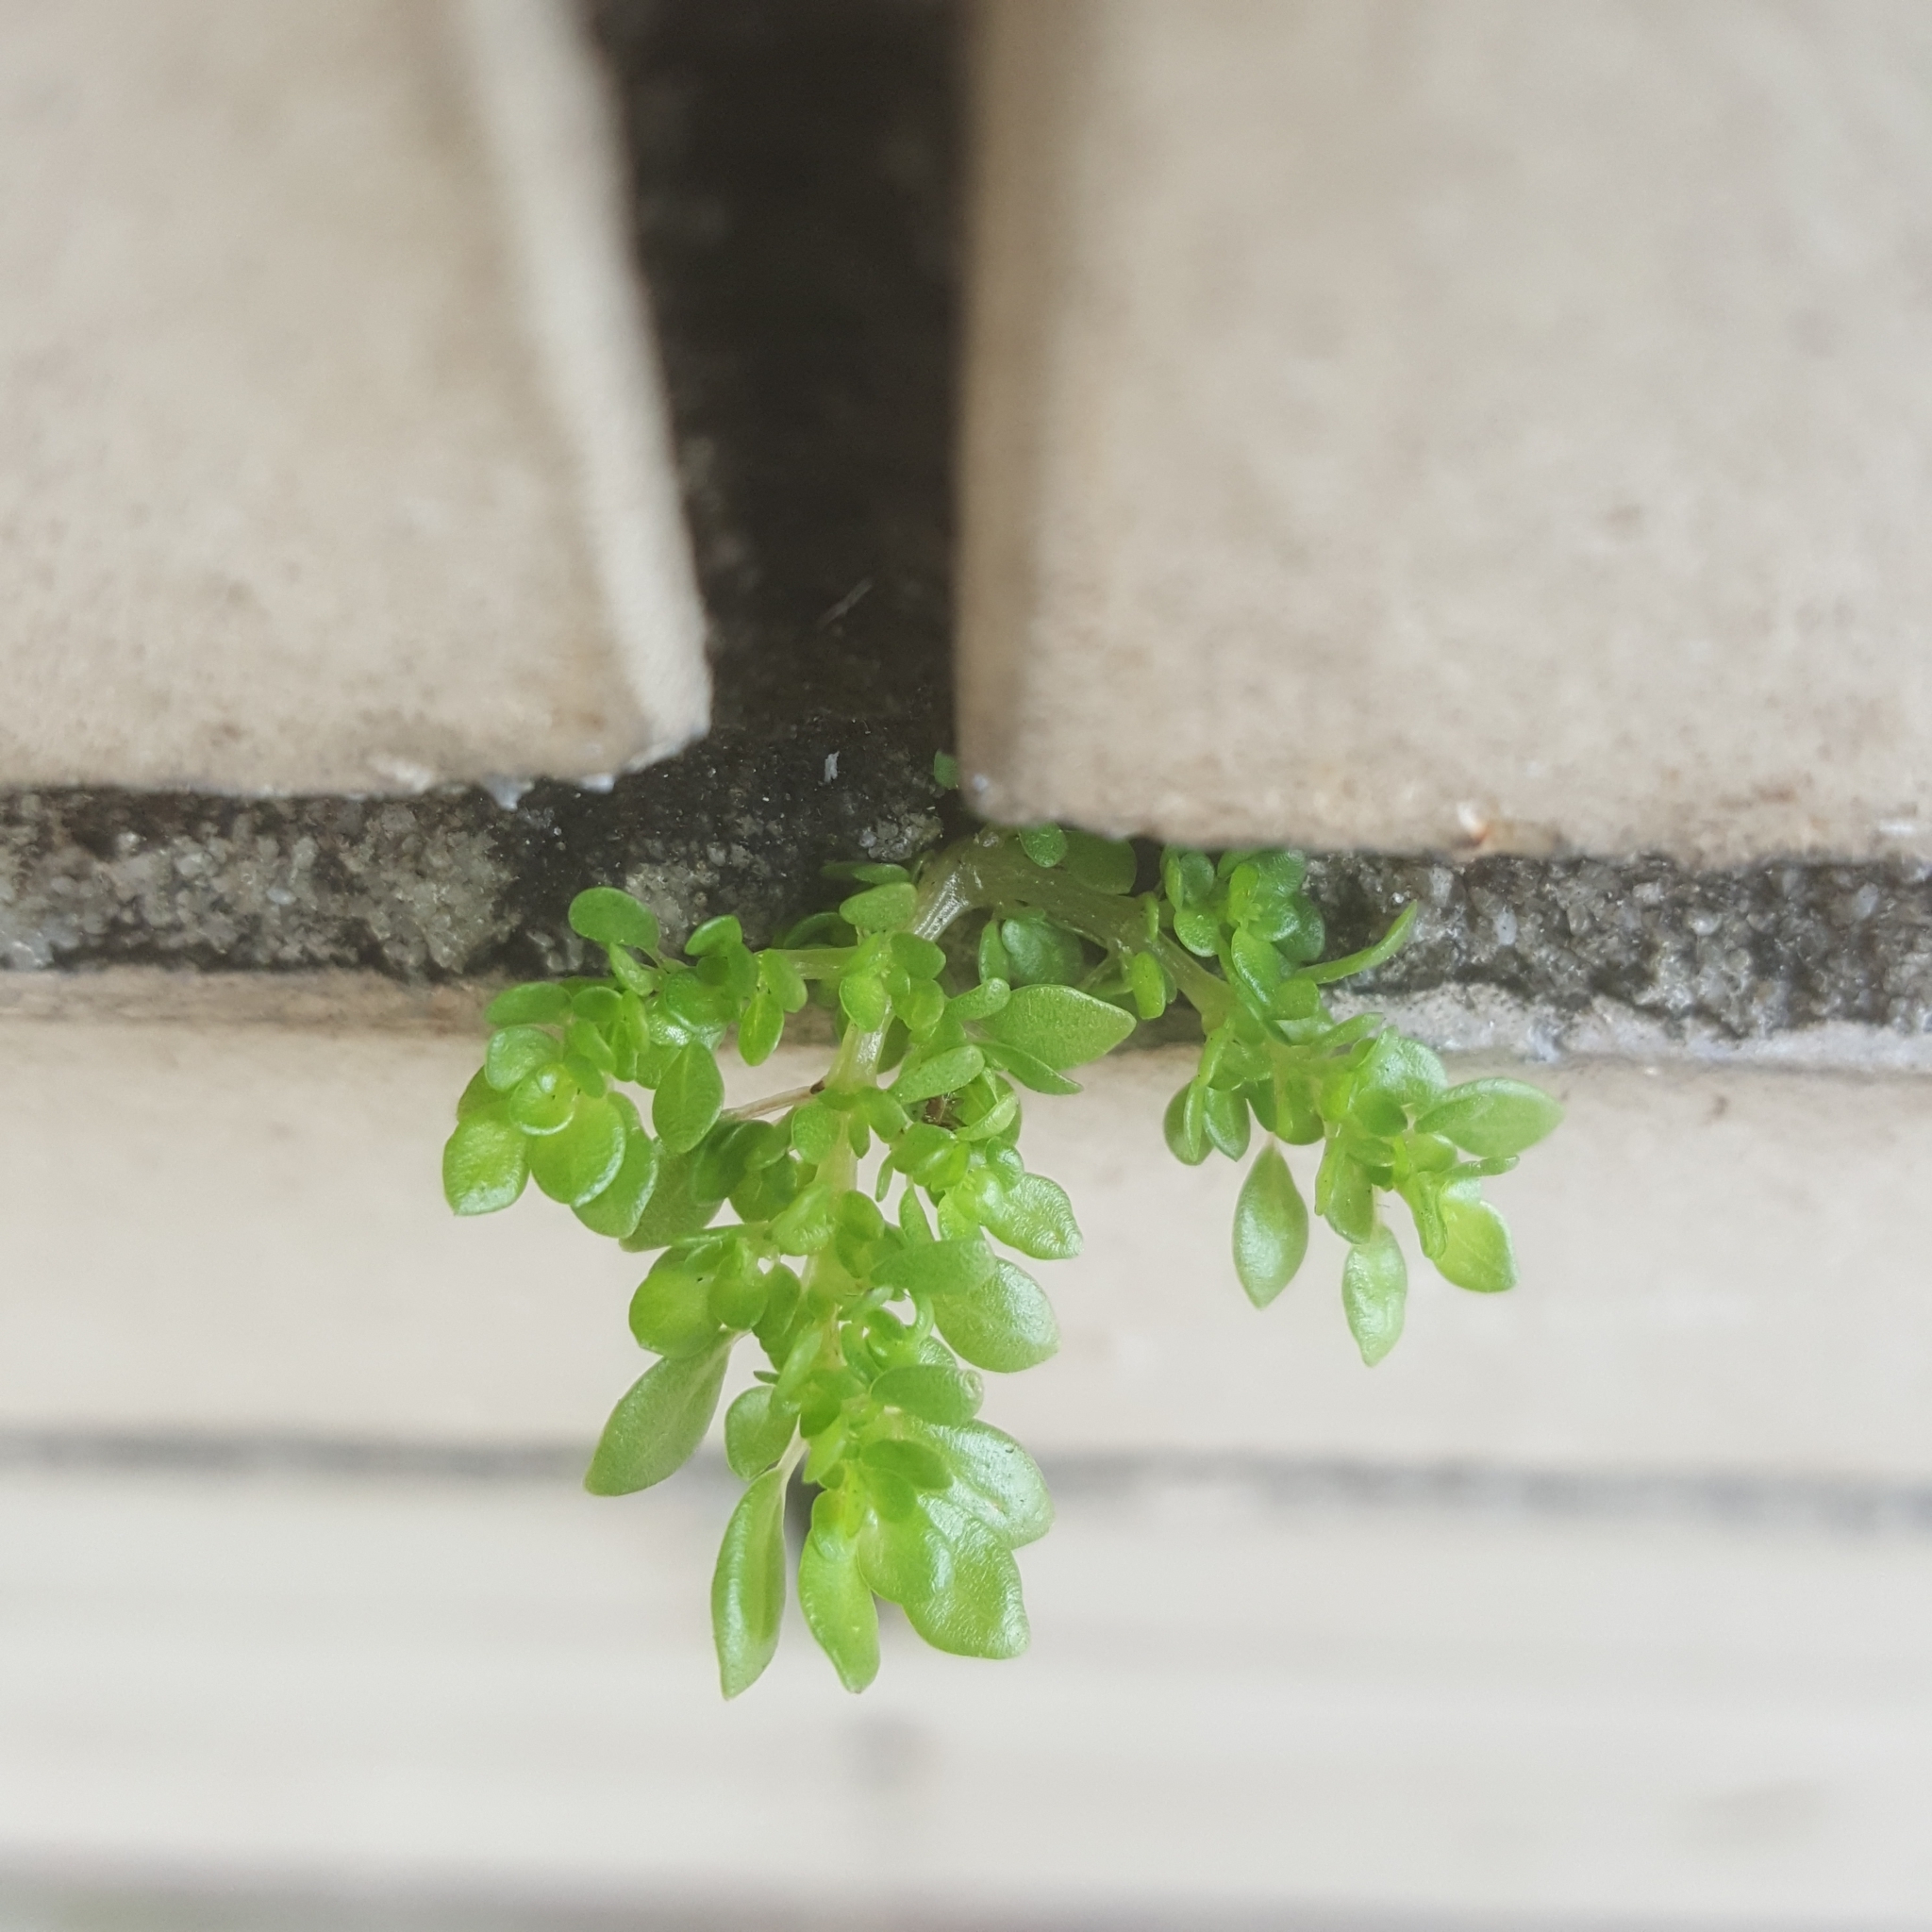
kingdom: Plantae
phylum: Tracheophyta
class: Magnoliopsida
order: Rosales
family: Urticaceae
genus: Pilea
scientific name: Pilea microphylla
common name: Artillery-plant
